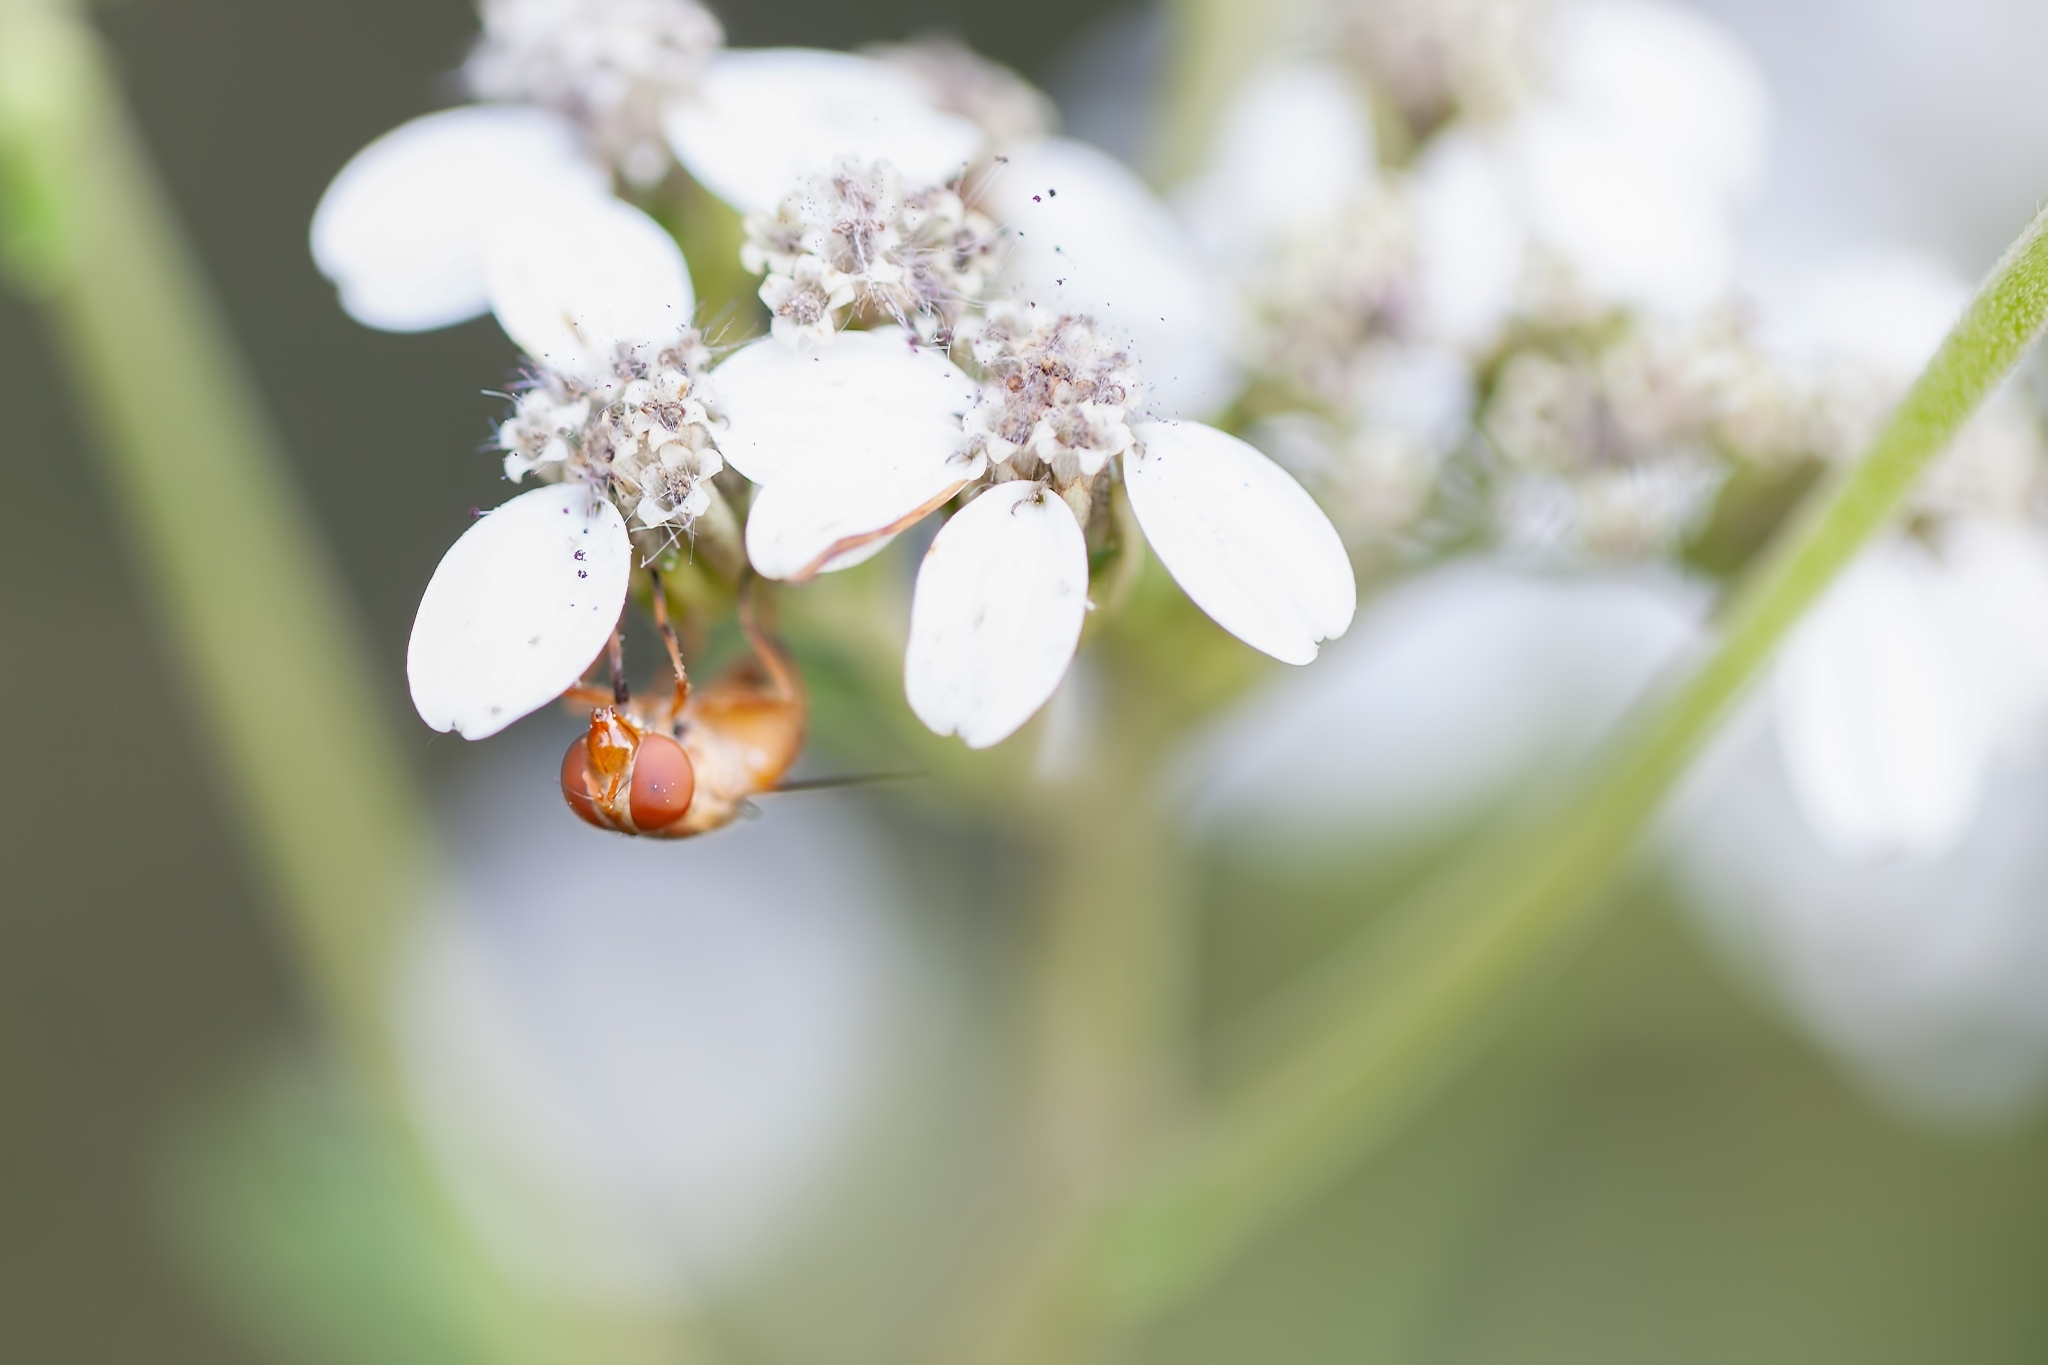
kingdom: Animalia
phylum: Arthropoda
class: Insecta
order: Diptera
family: Syrphidae
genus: Copestylum
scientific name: Copestylum sexmaculatum
